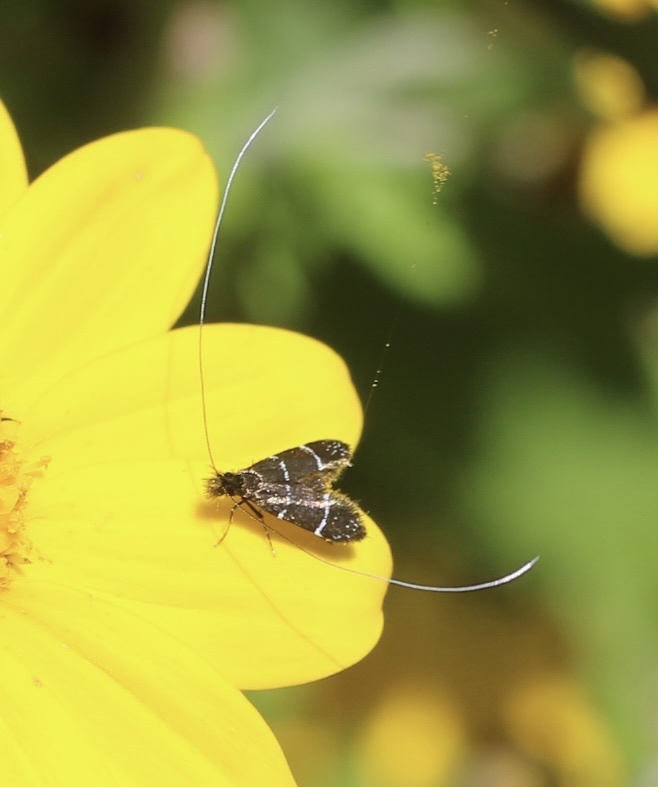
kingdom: Animalia
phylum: Arthropoda
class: Insecta
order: Lepidoptera
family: Adelidae
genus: Adela
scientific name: Adela septentrionella
